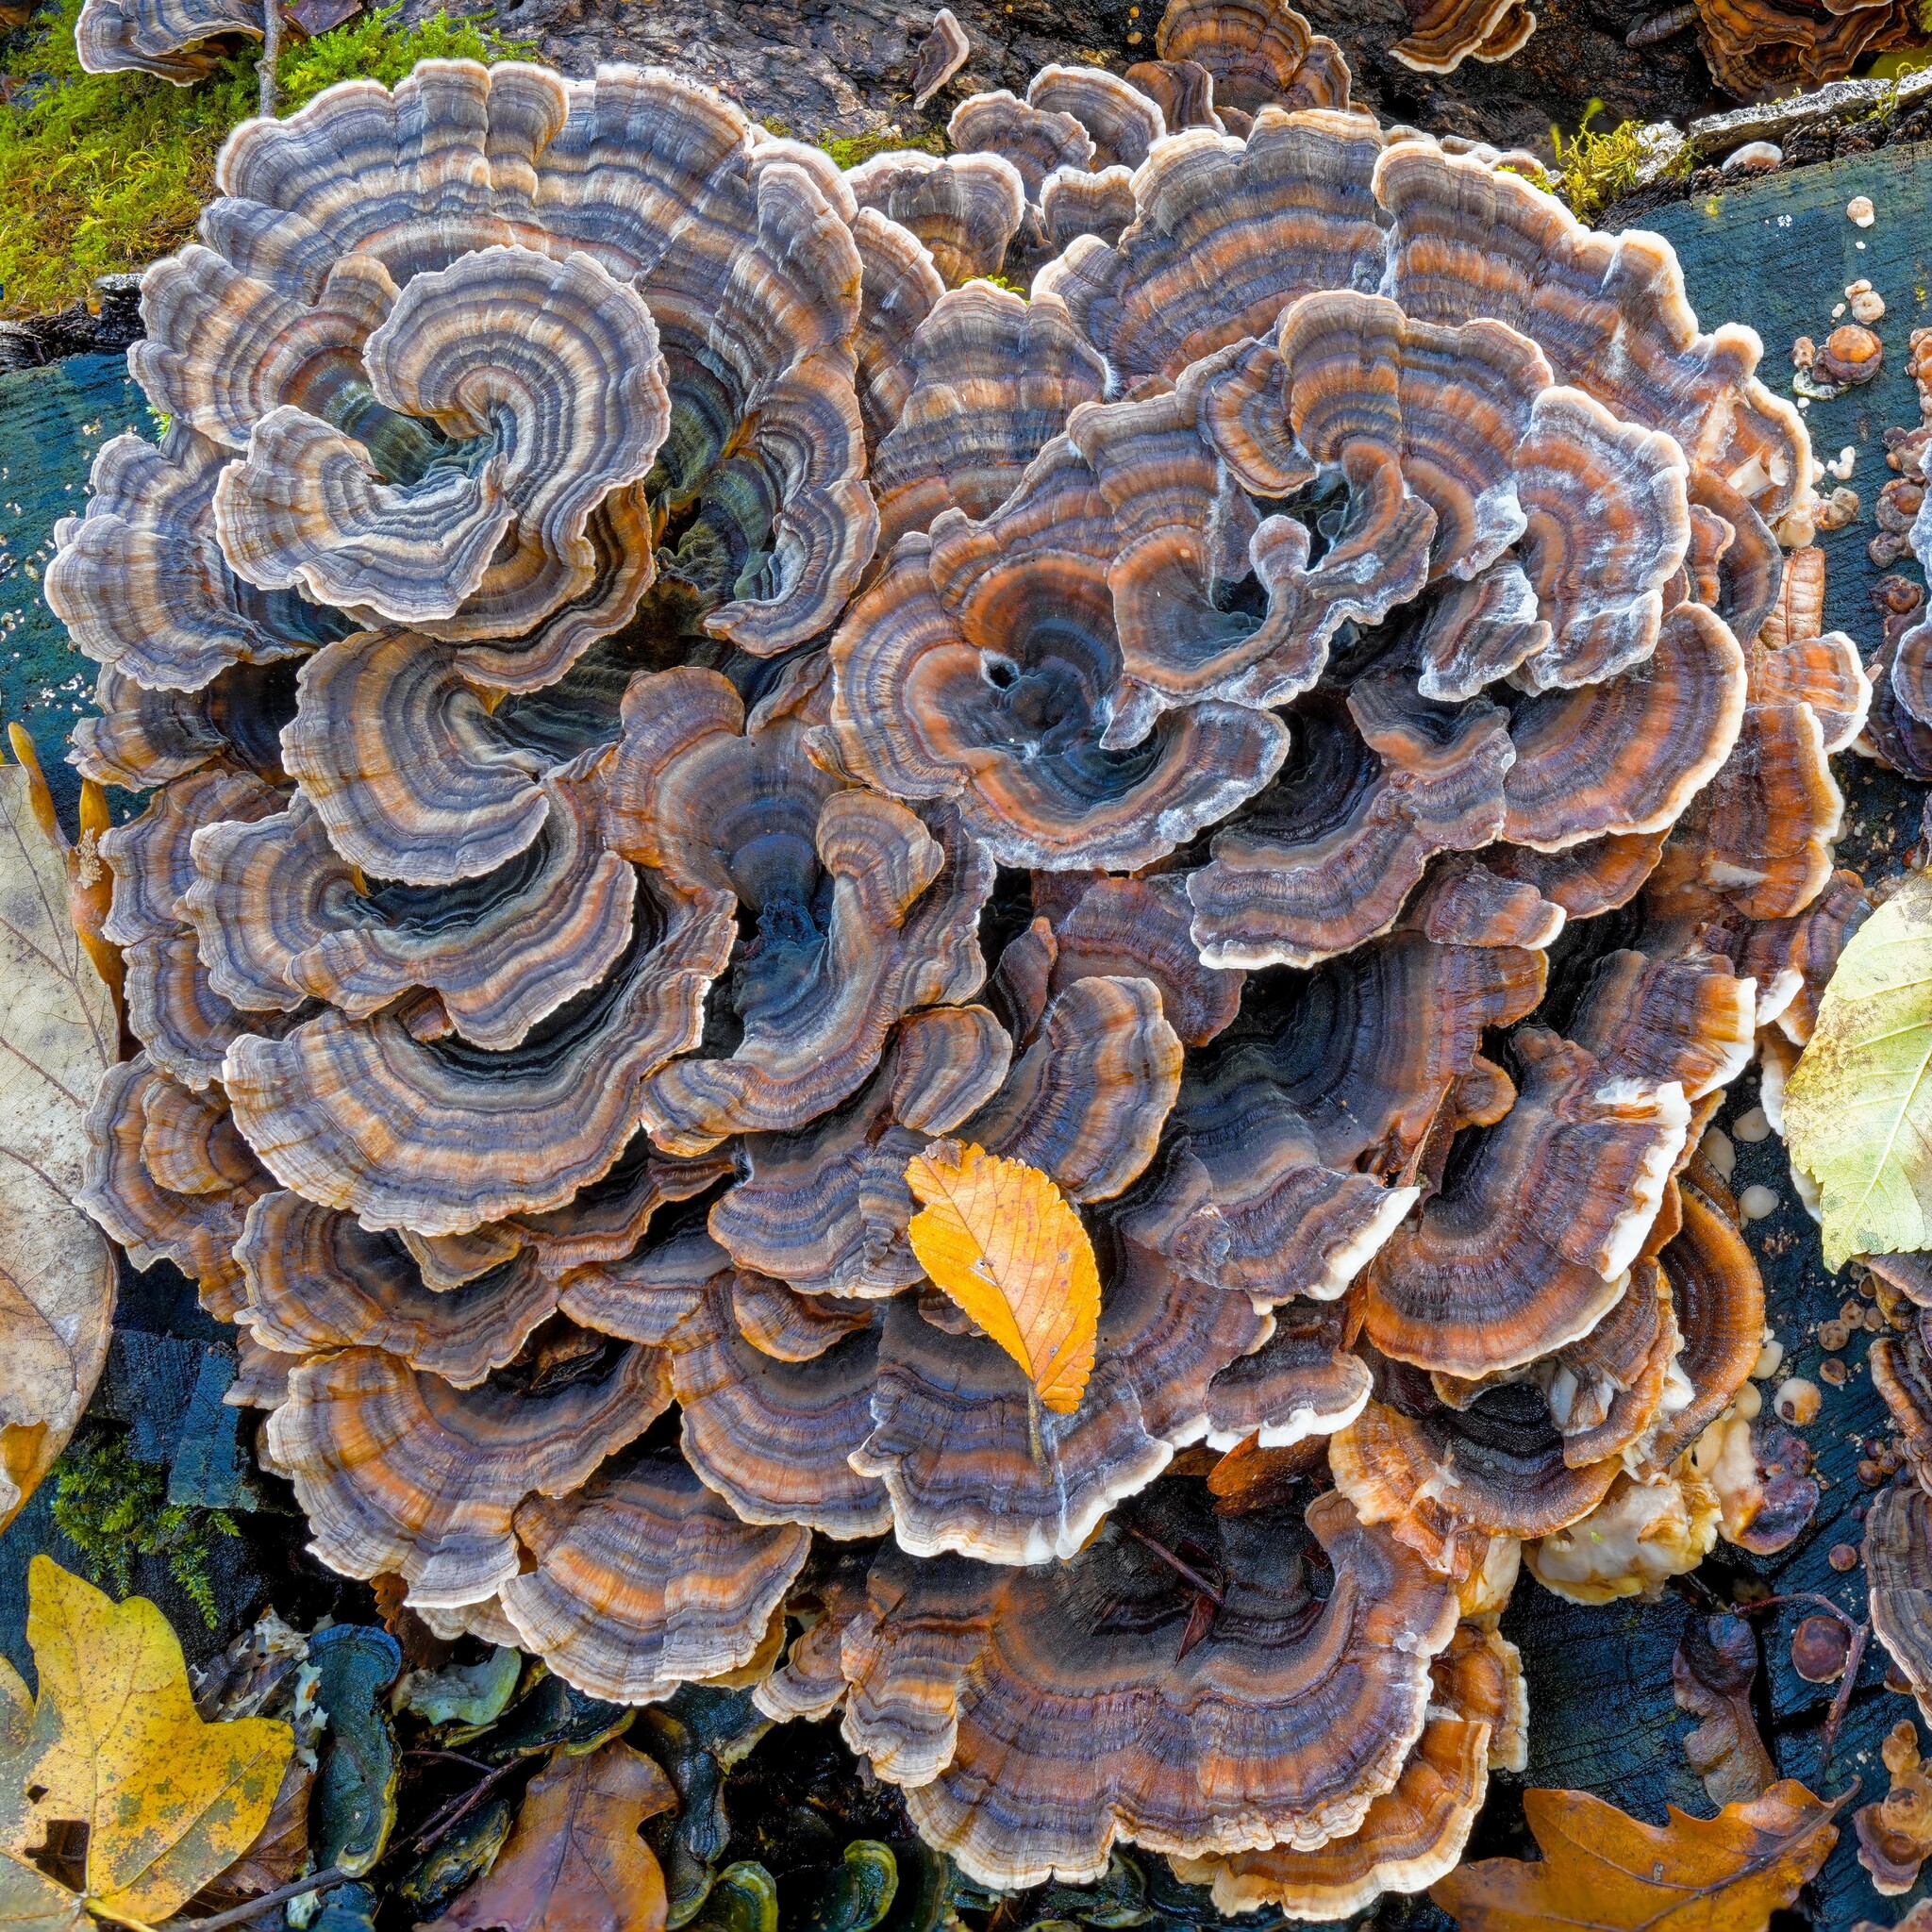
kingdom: Fungi
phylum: Basidiomycota
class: Agaricomycetes
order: Polyporales
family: Polyporaceae
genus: Trametes
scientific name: Trametes versicolor
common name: Turkeytail
